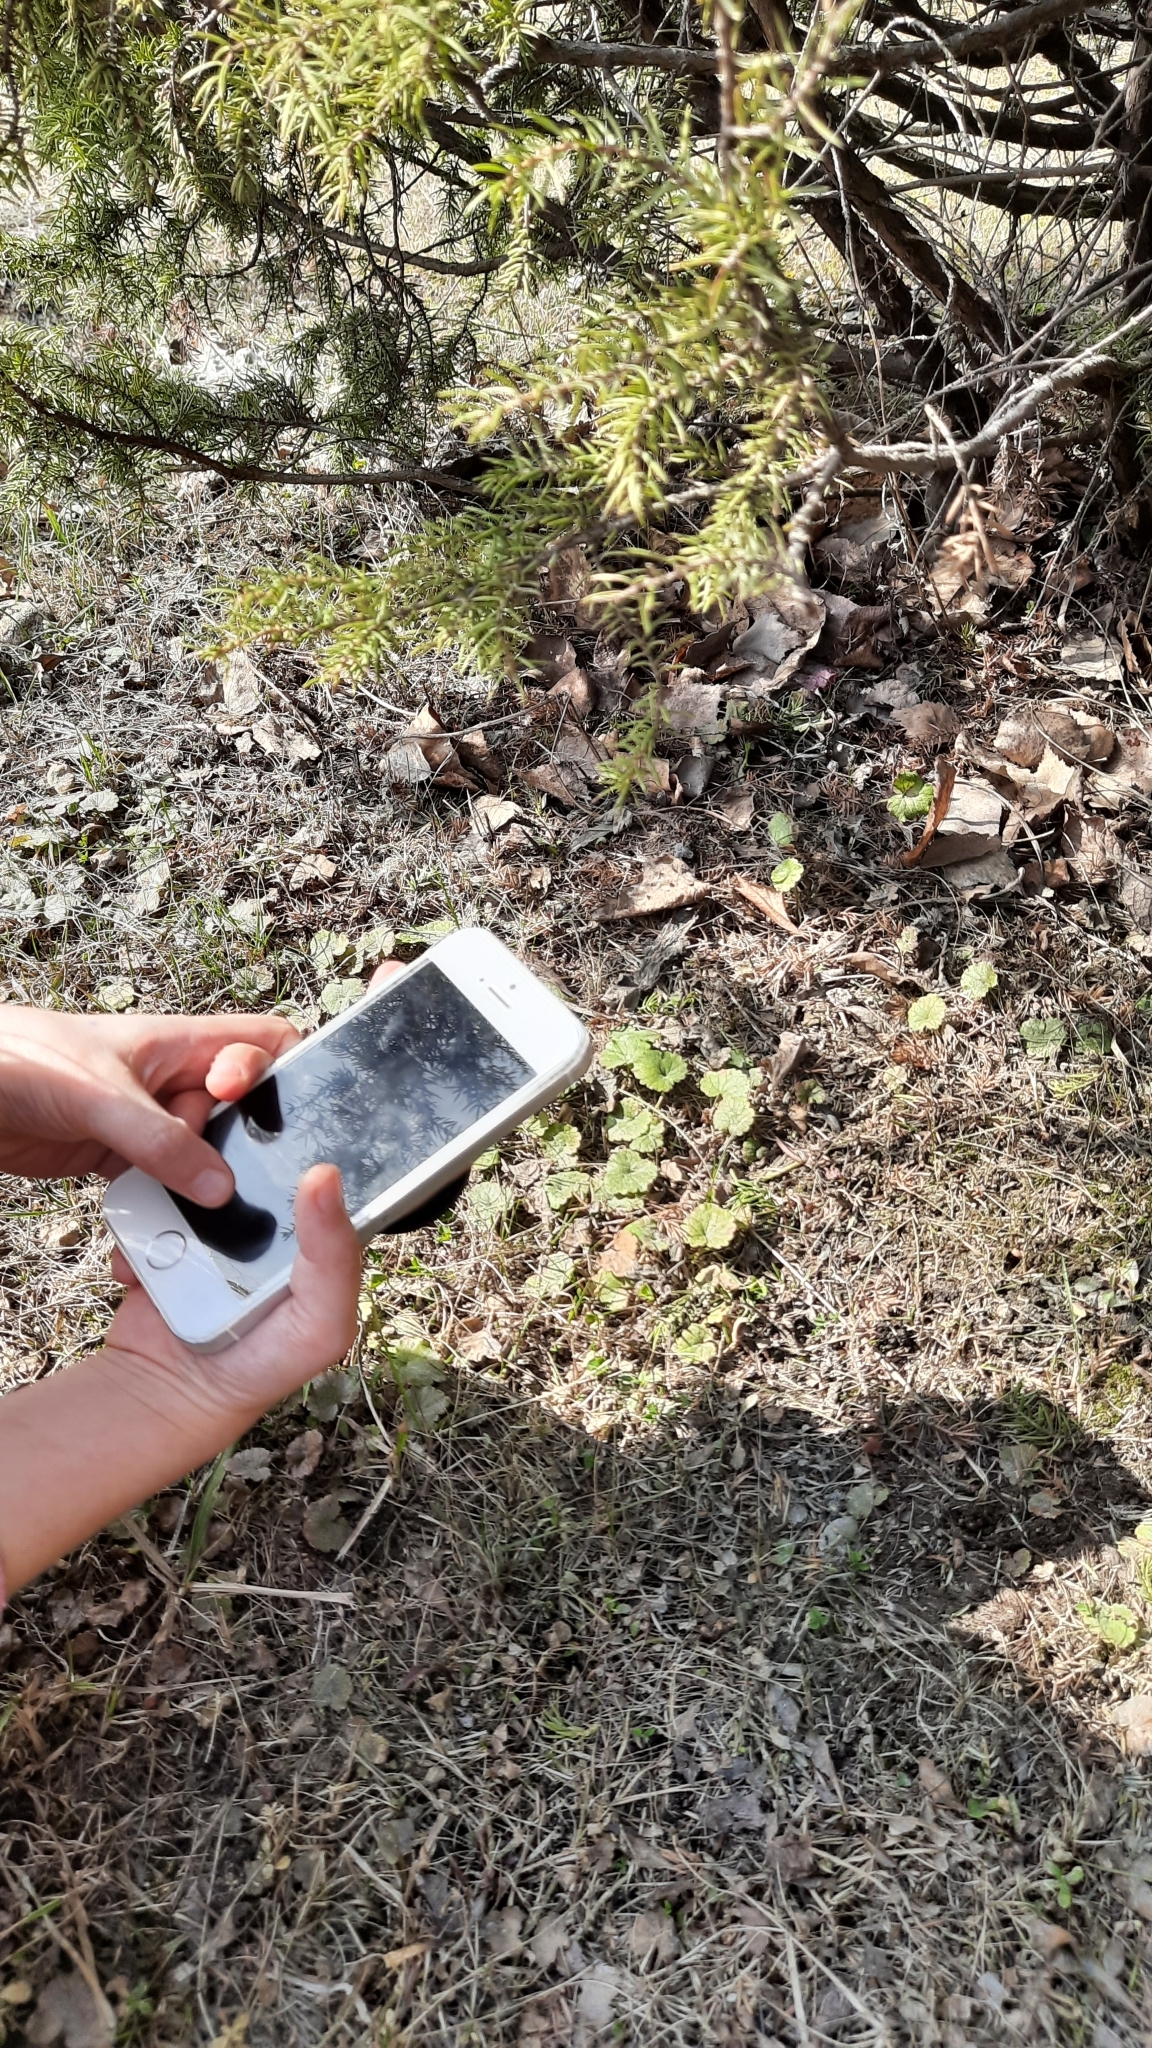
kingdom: Plantae
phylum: Tracheophyta
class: Magnoliopsida
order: Lamiales
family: Lamiaceae
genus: Glechoma
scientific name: Glechoma hederacea
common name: Ground ivy
